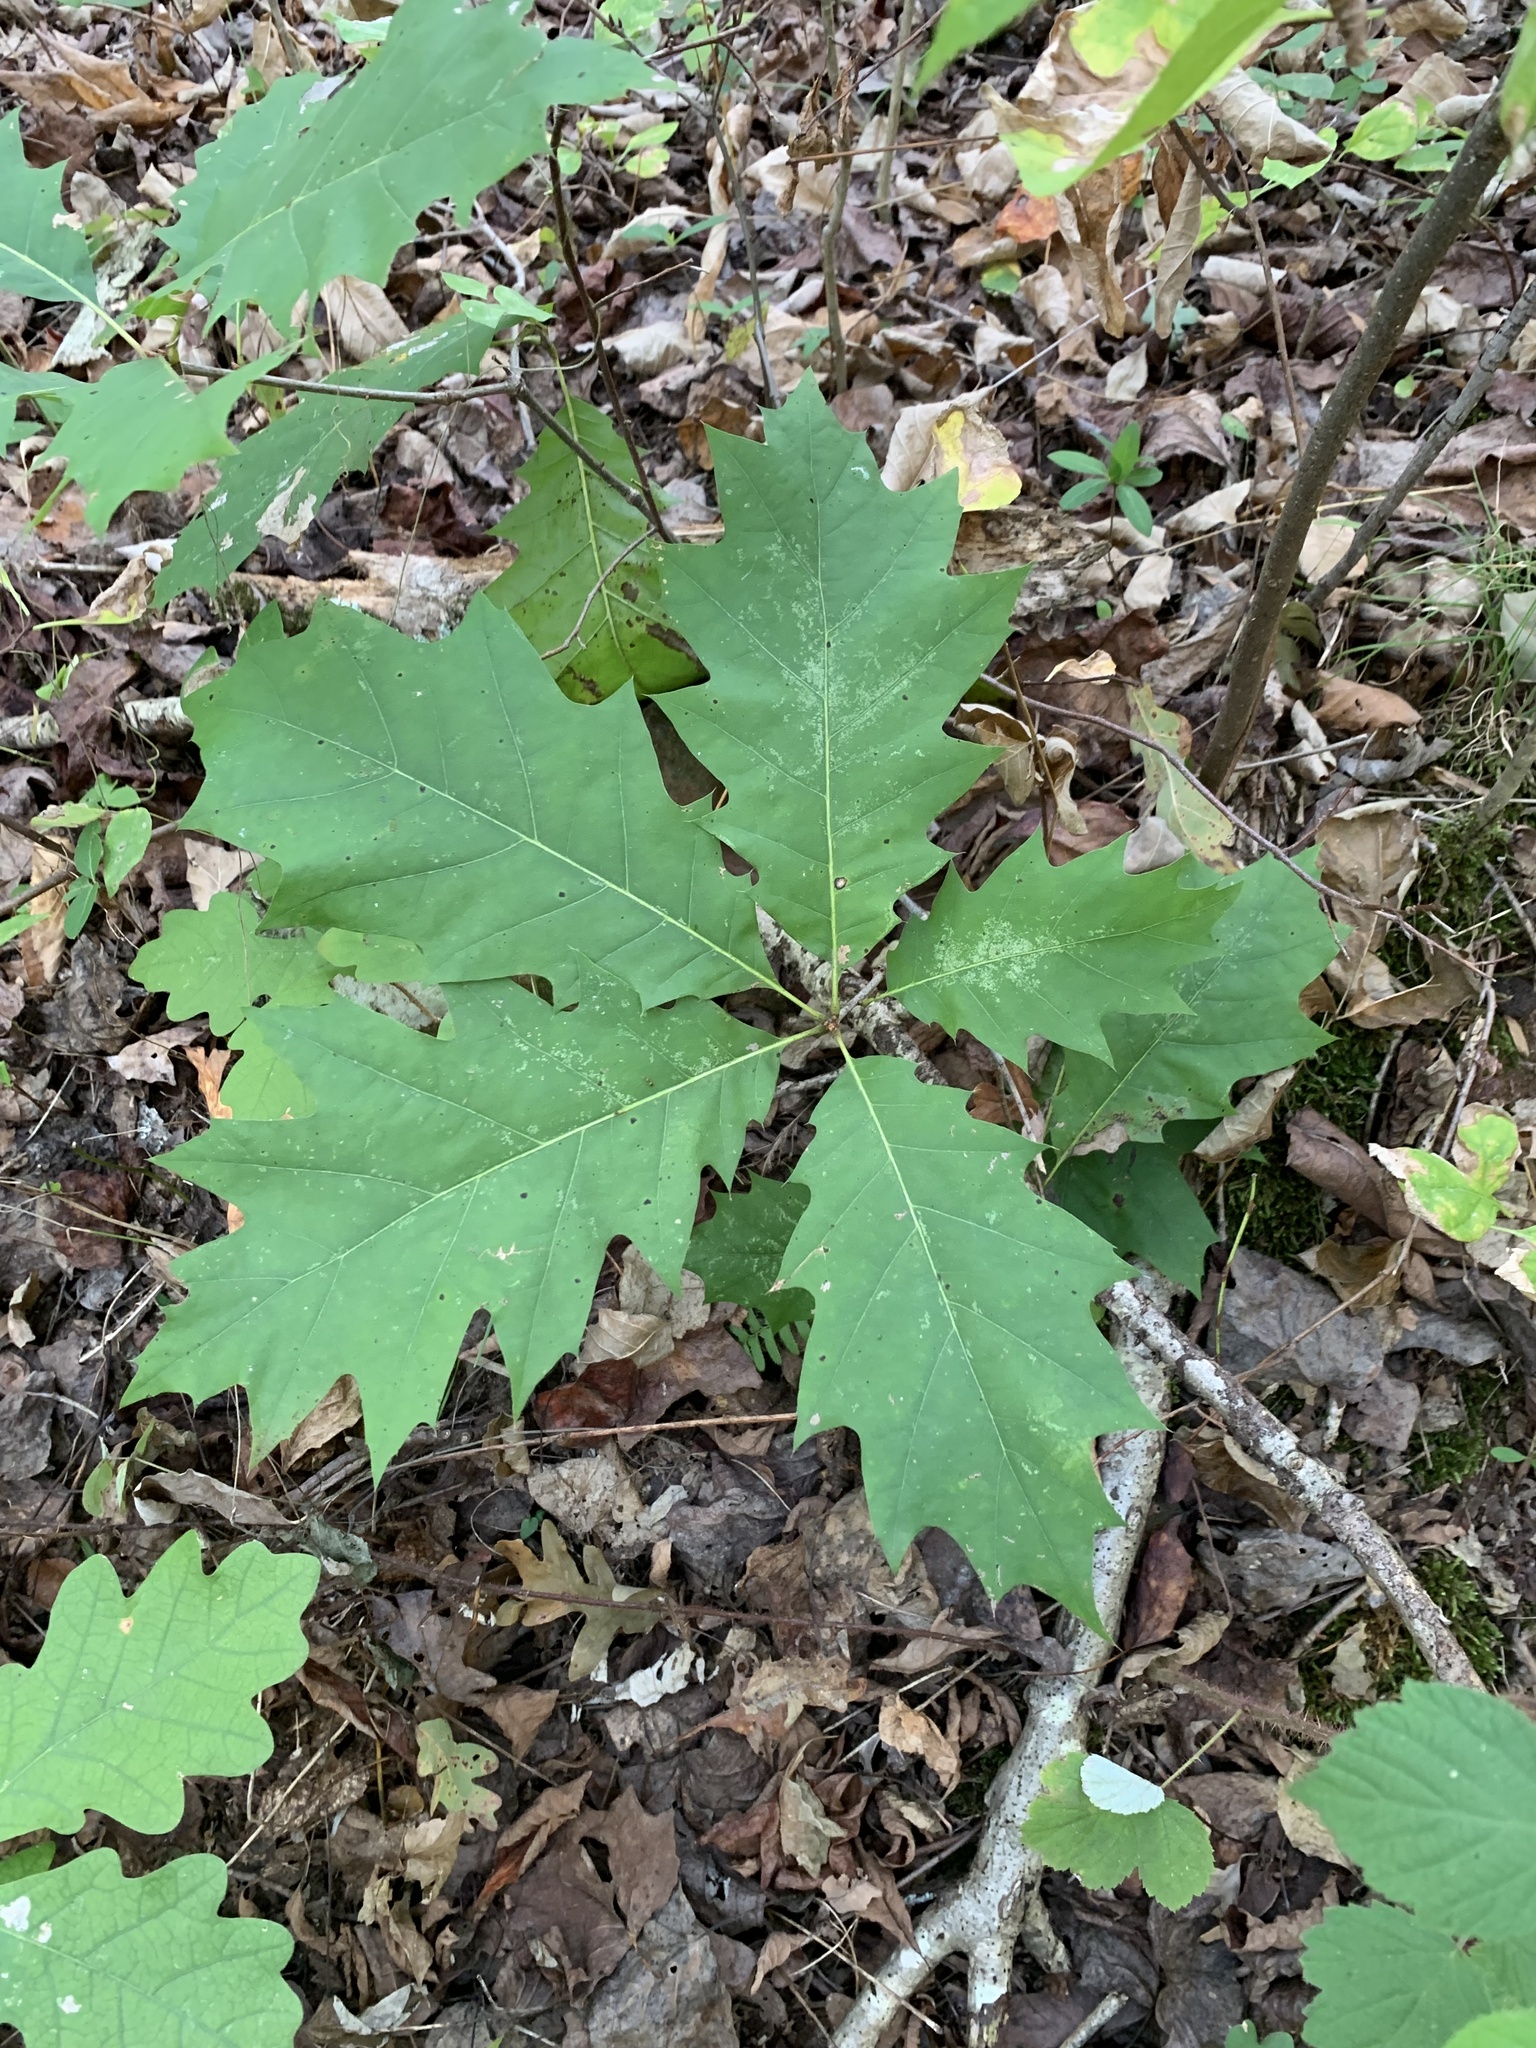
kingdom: Plantae
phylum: Tracheophyta
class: Magnoliopsida
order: Fagales
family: Fagaceae
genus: Quercus
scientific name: Quercus rubra
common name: Red oak
